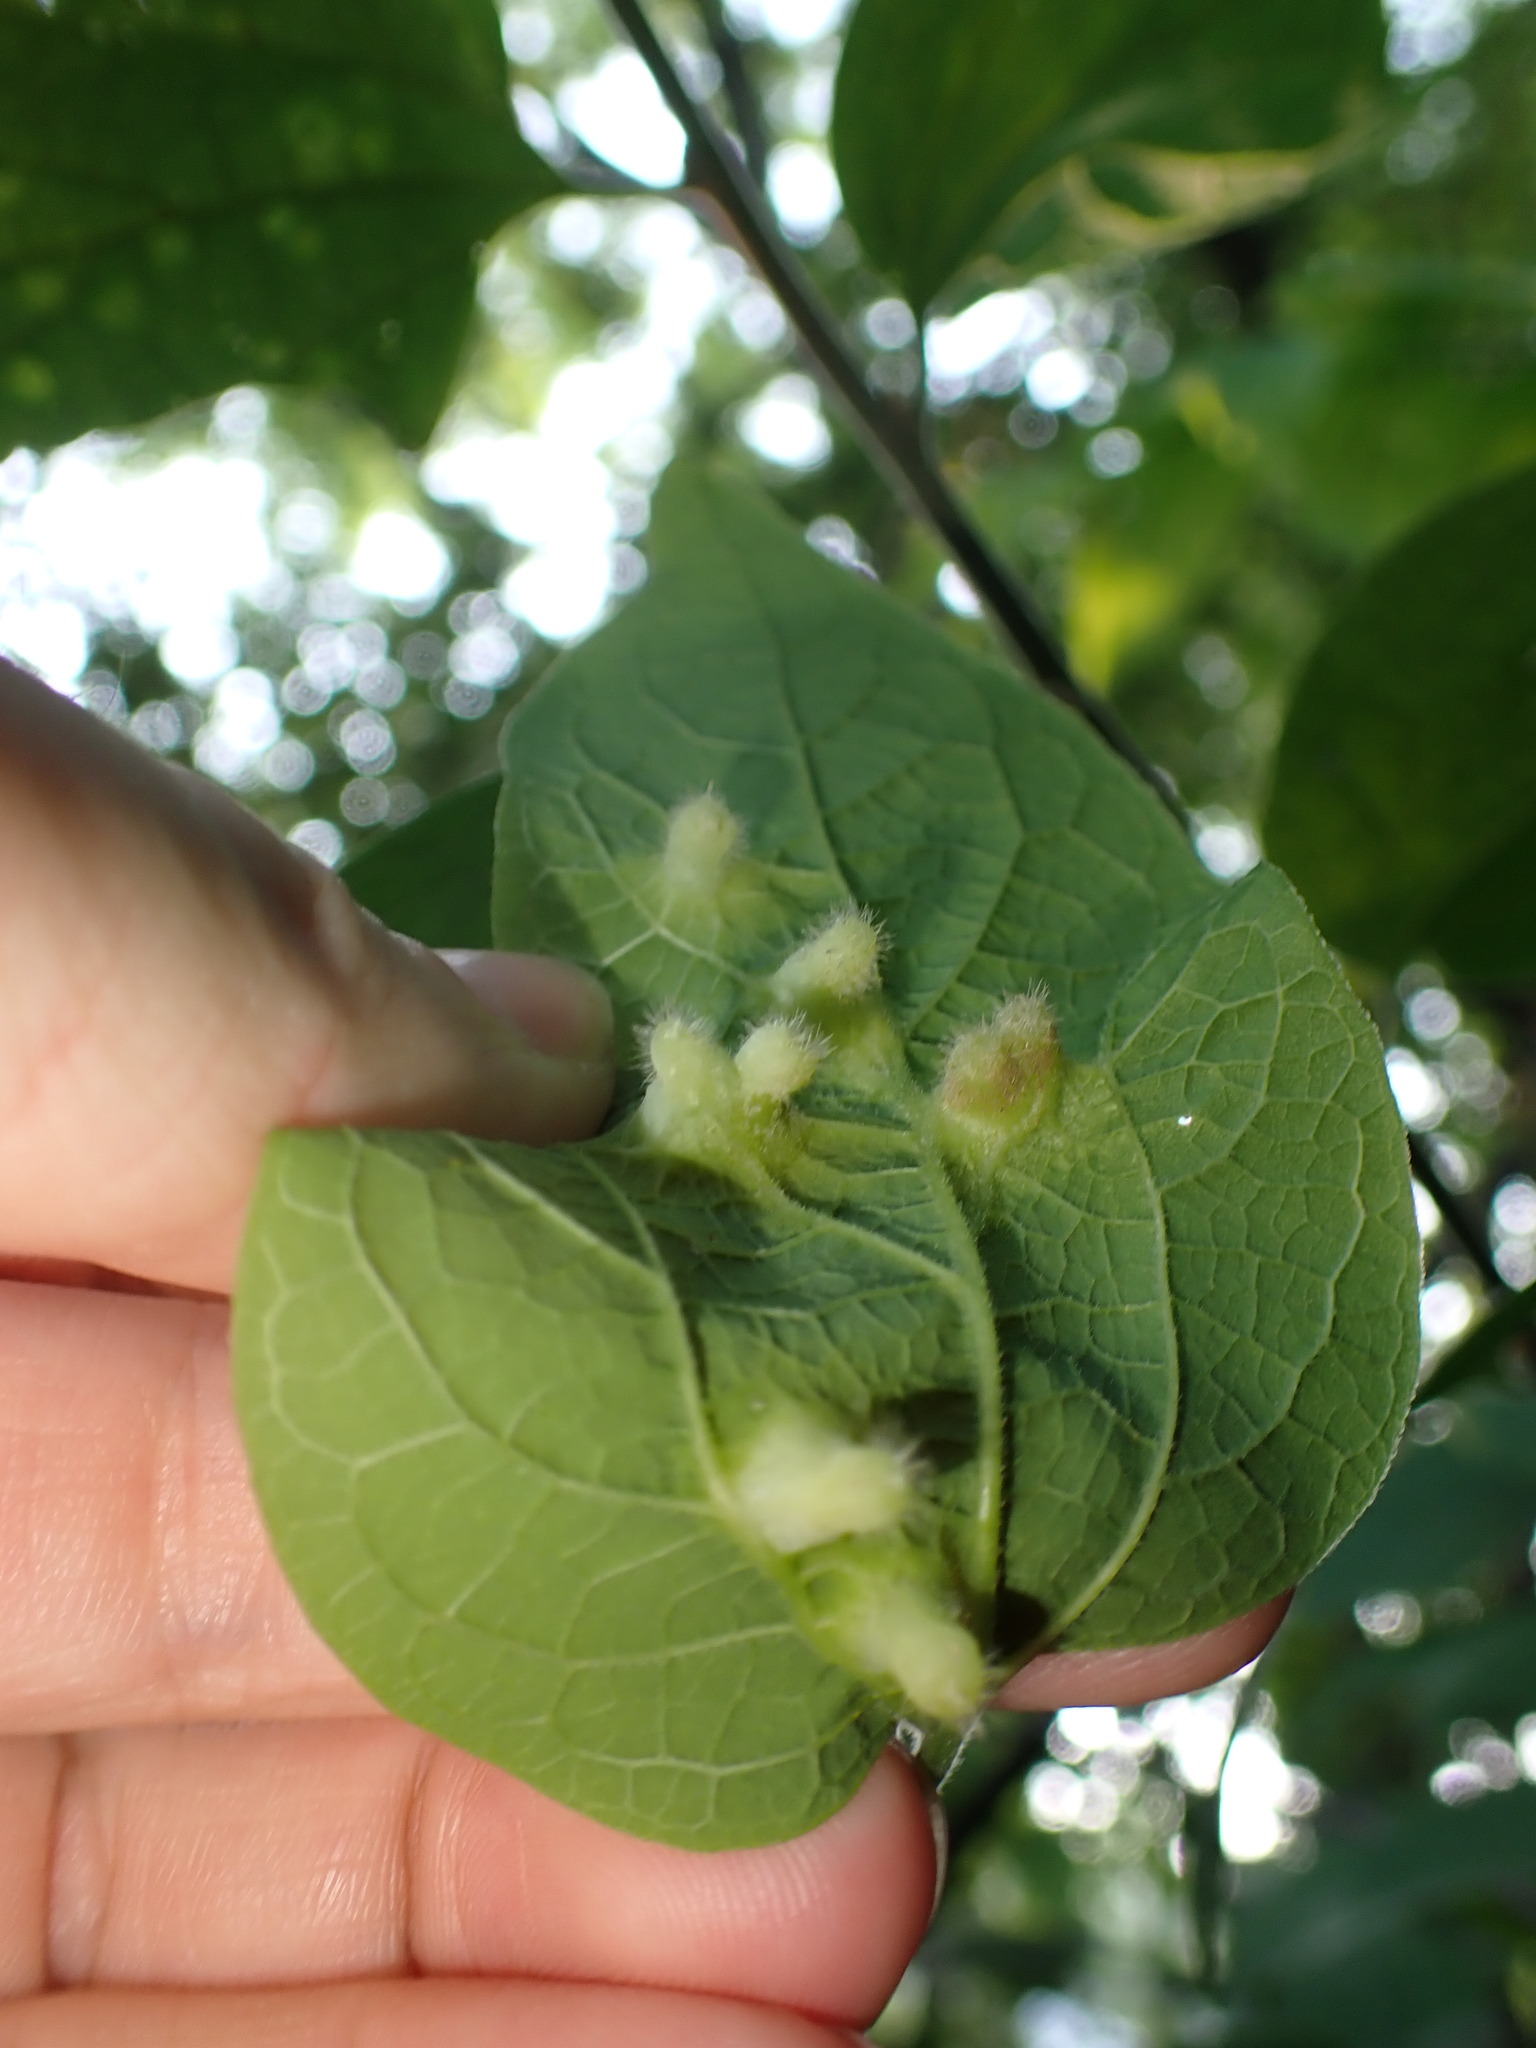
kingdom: Animalia
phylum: Arthropoda
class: Insecta
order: Hemiptera
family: Aphalaridae
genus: Pachypsylla
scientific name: Pachypsylla celtidismamma
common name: Hackberry nipplegall psyllid
